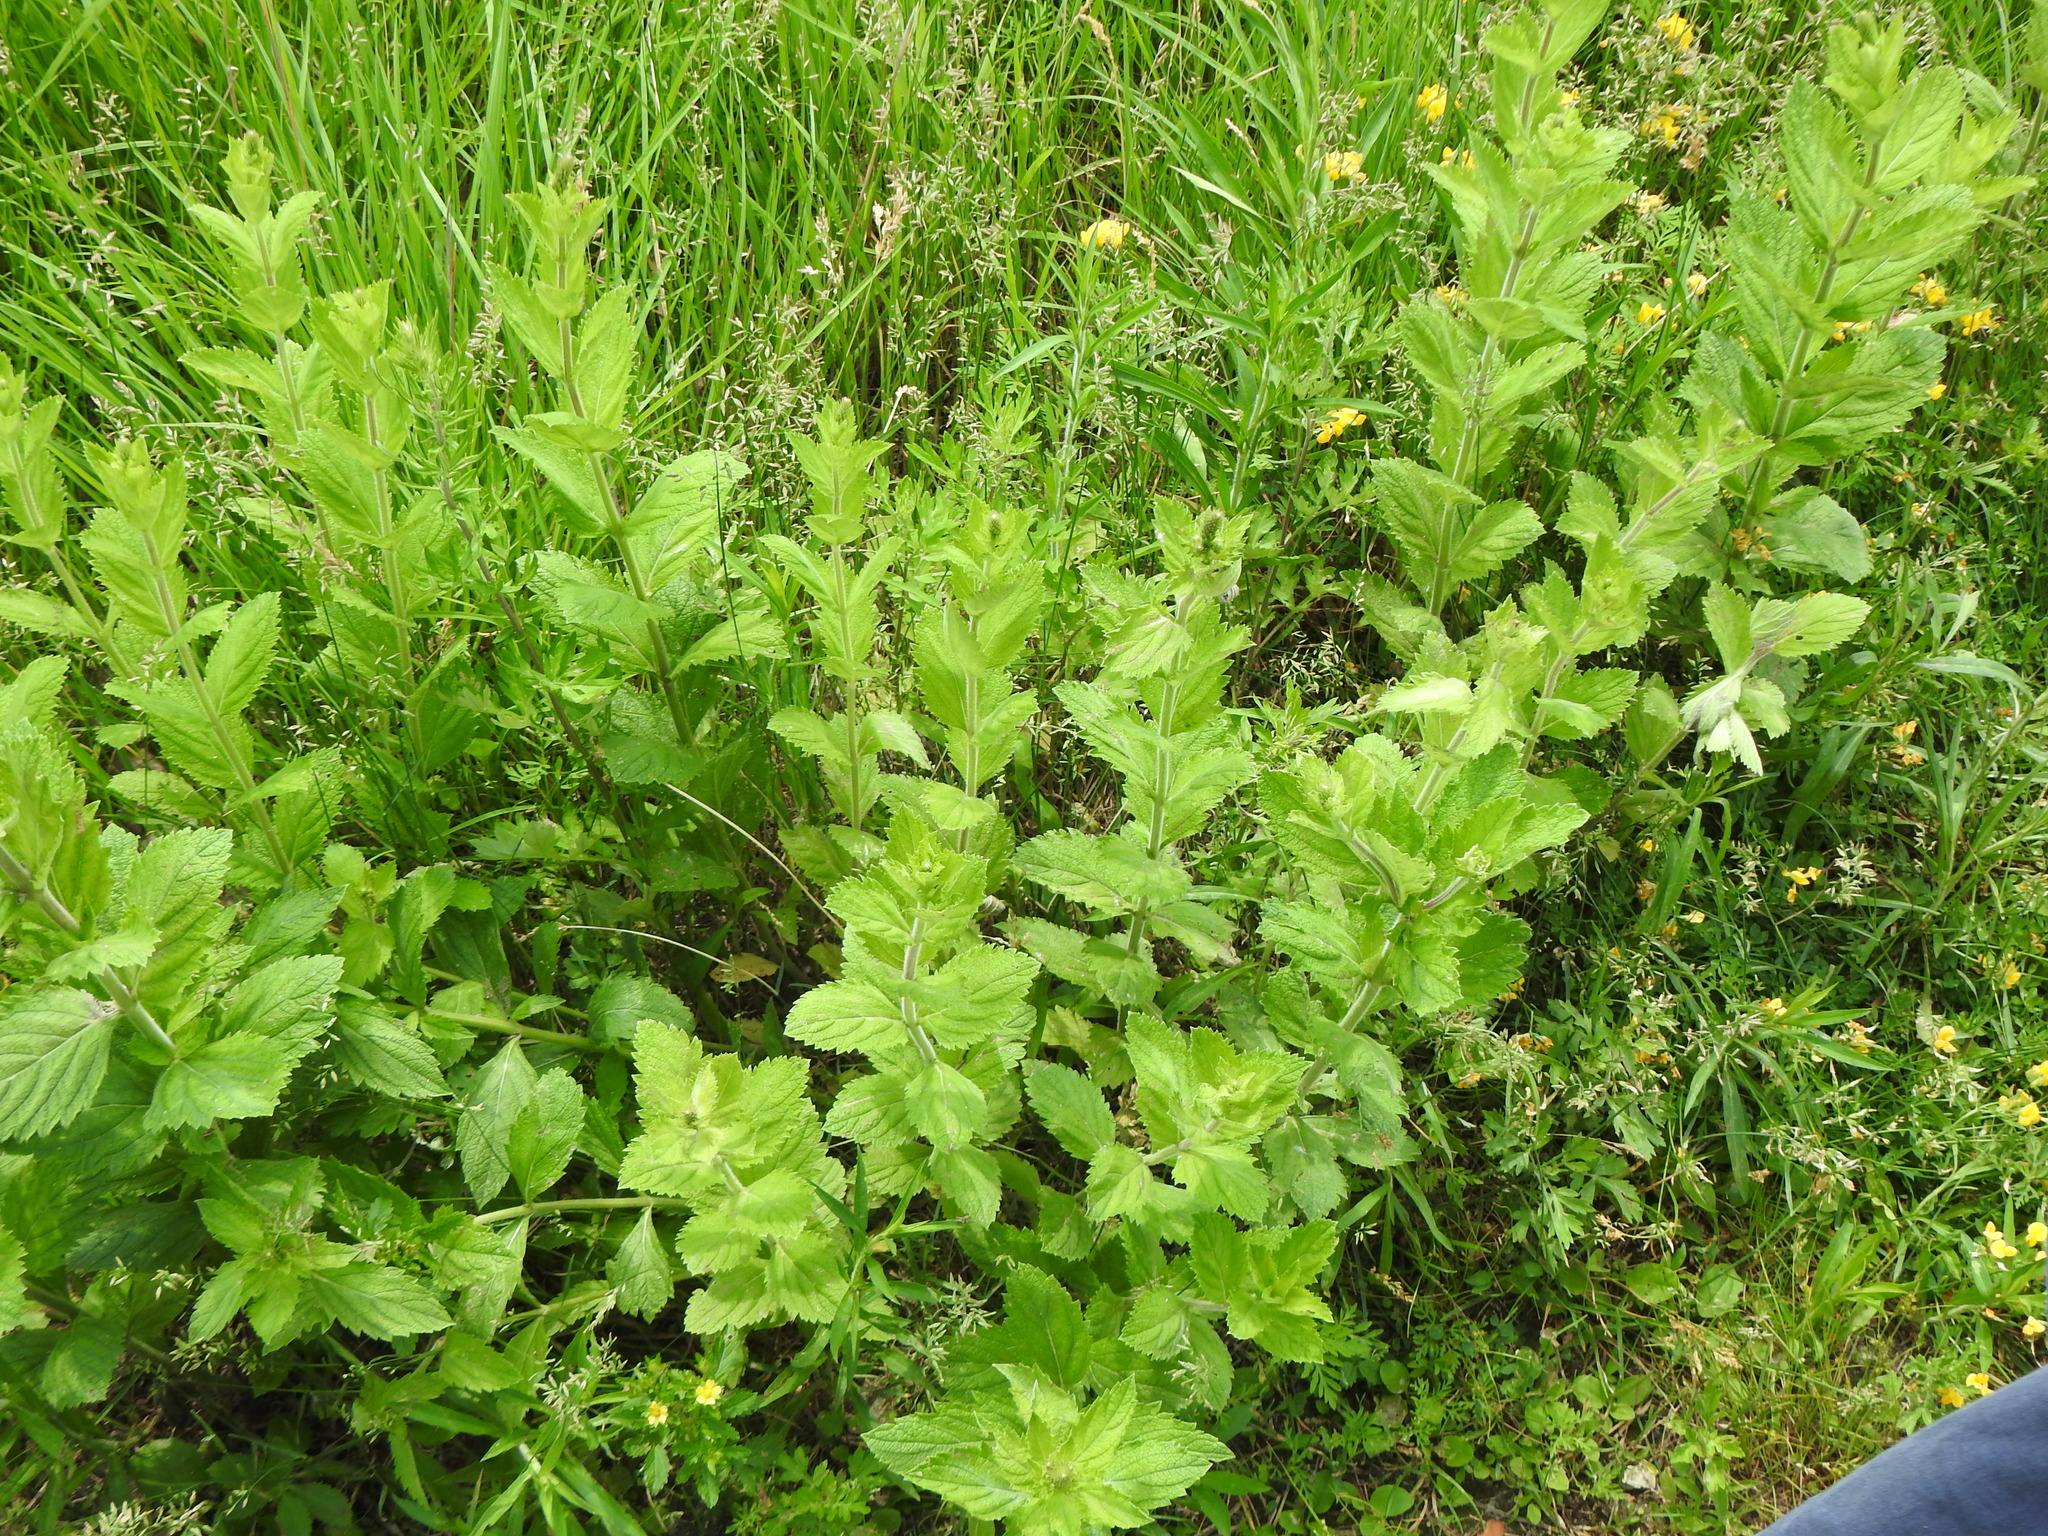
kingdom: Plantae
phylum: Tracheophyta
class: Magnoliopsida
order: Lamiales
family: Verbenaceae
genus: Verbena
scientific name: Verbena stricta
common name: Hoary vervain
